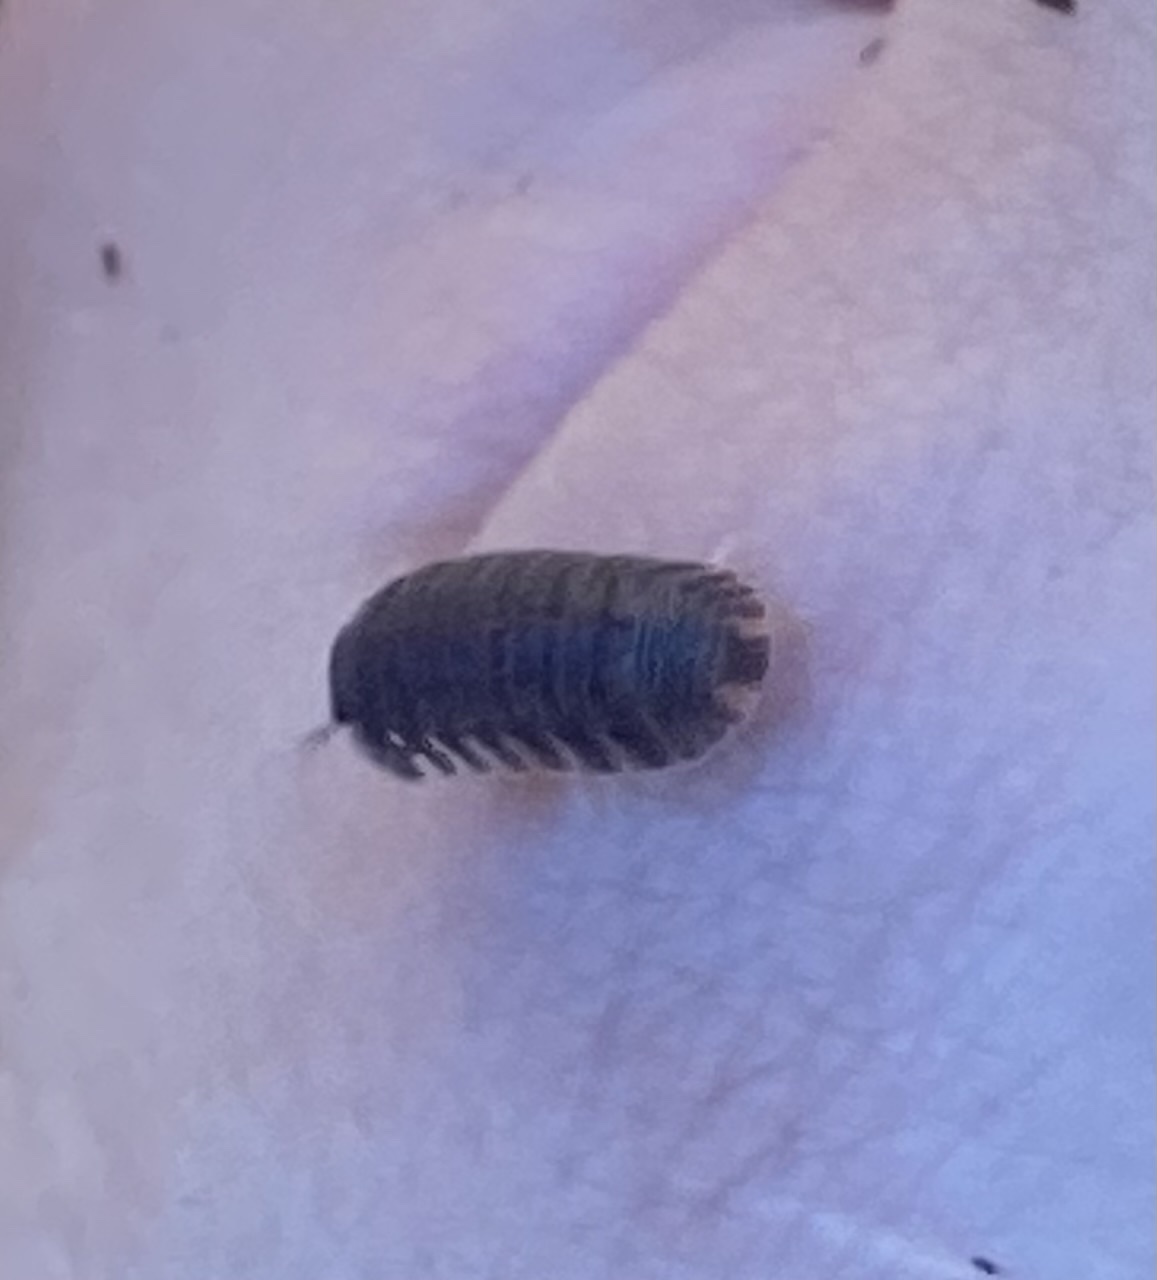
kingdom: Animalia
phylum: Arthropoda
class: Malacostraca
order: Isopoda
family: Armadillidae
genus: Cubaris
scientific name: Cubaris murina
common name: Pillbug
